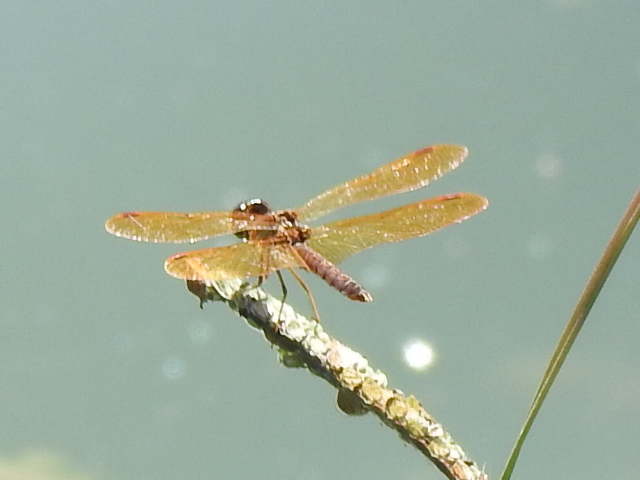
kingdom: Animalia
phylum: Arthropoda
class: Insecta
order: Odonata
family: Libellulidae
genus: Perithemis
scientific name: Perithemis tenera
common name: Eastern amberwing
